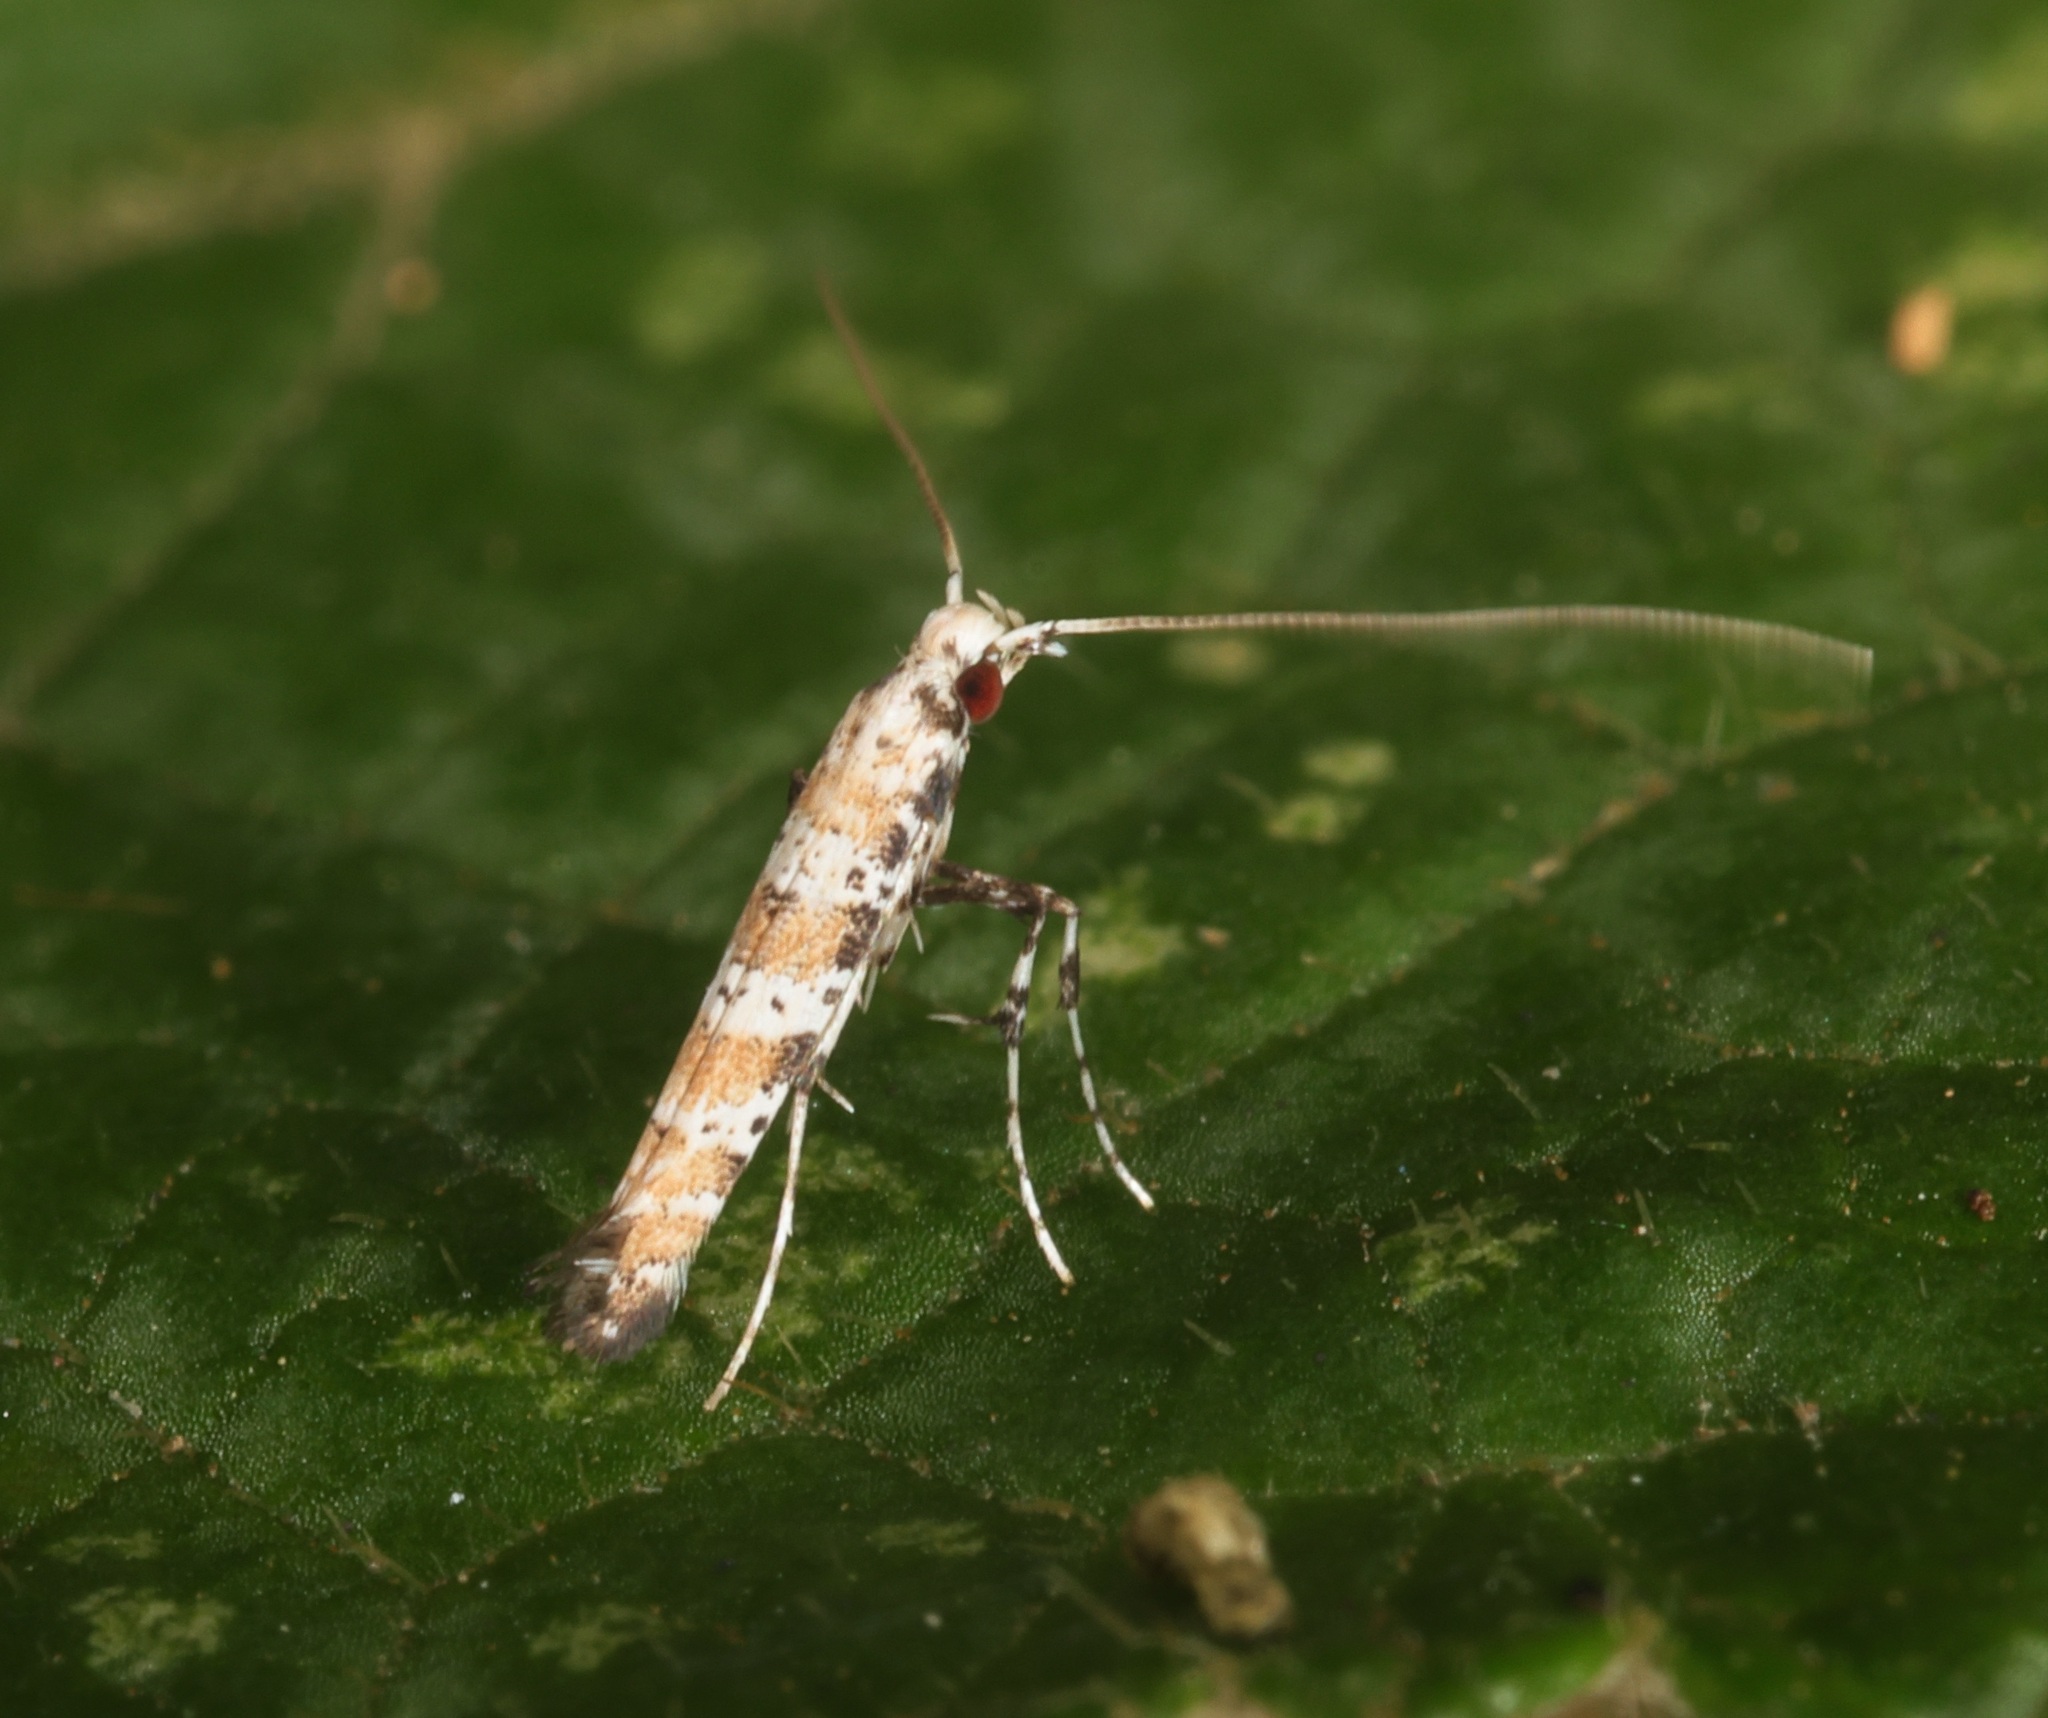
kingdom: Animalia
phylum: Arthropoda
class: Insecta
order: Lepidoptera
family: Gracillariidae
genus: Gibbovalva
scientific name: Gibbovalva
